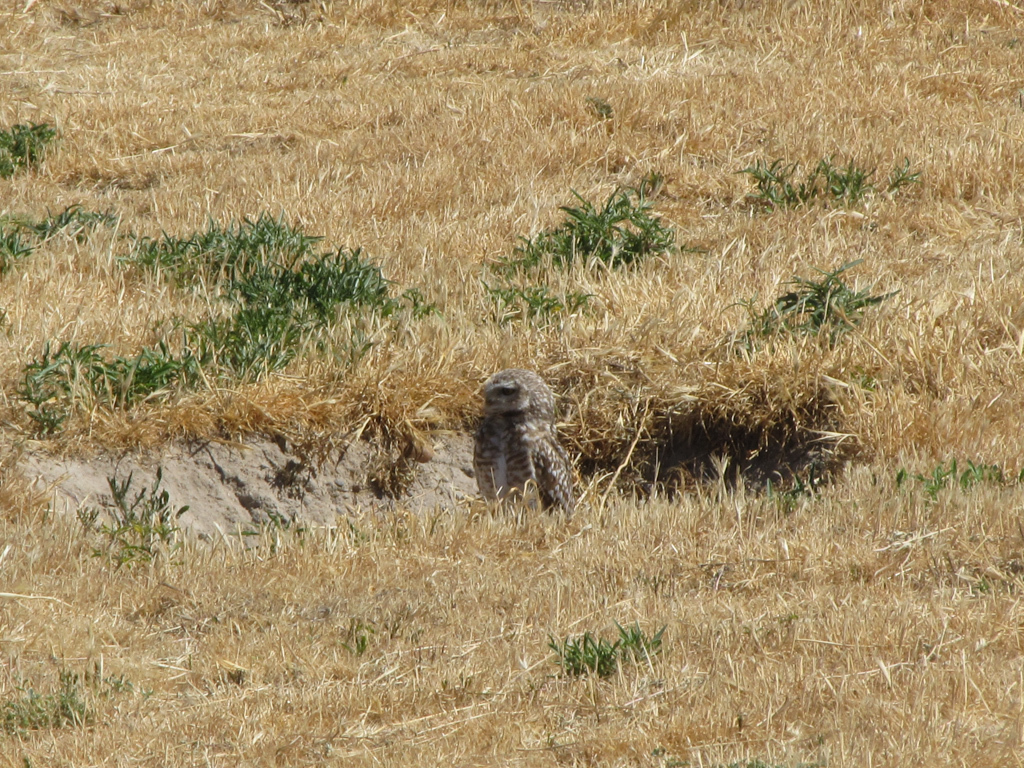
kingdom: Animalia
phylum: Chordata
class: Aves
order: Strigiformes
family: Strigidae
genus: Athene
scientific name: Athene cunicularia
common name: Burrowing owl
